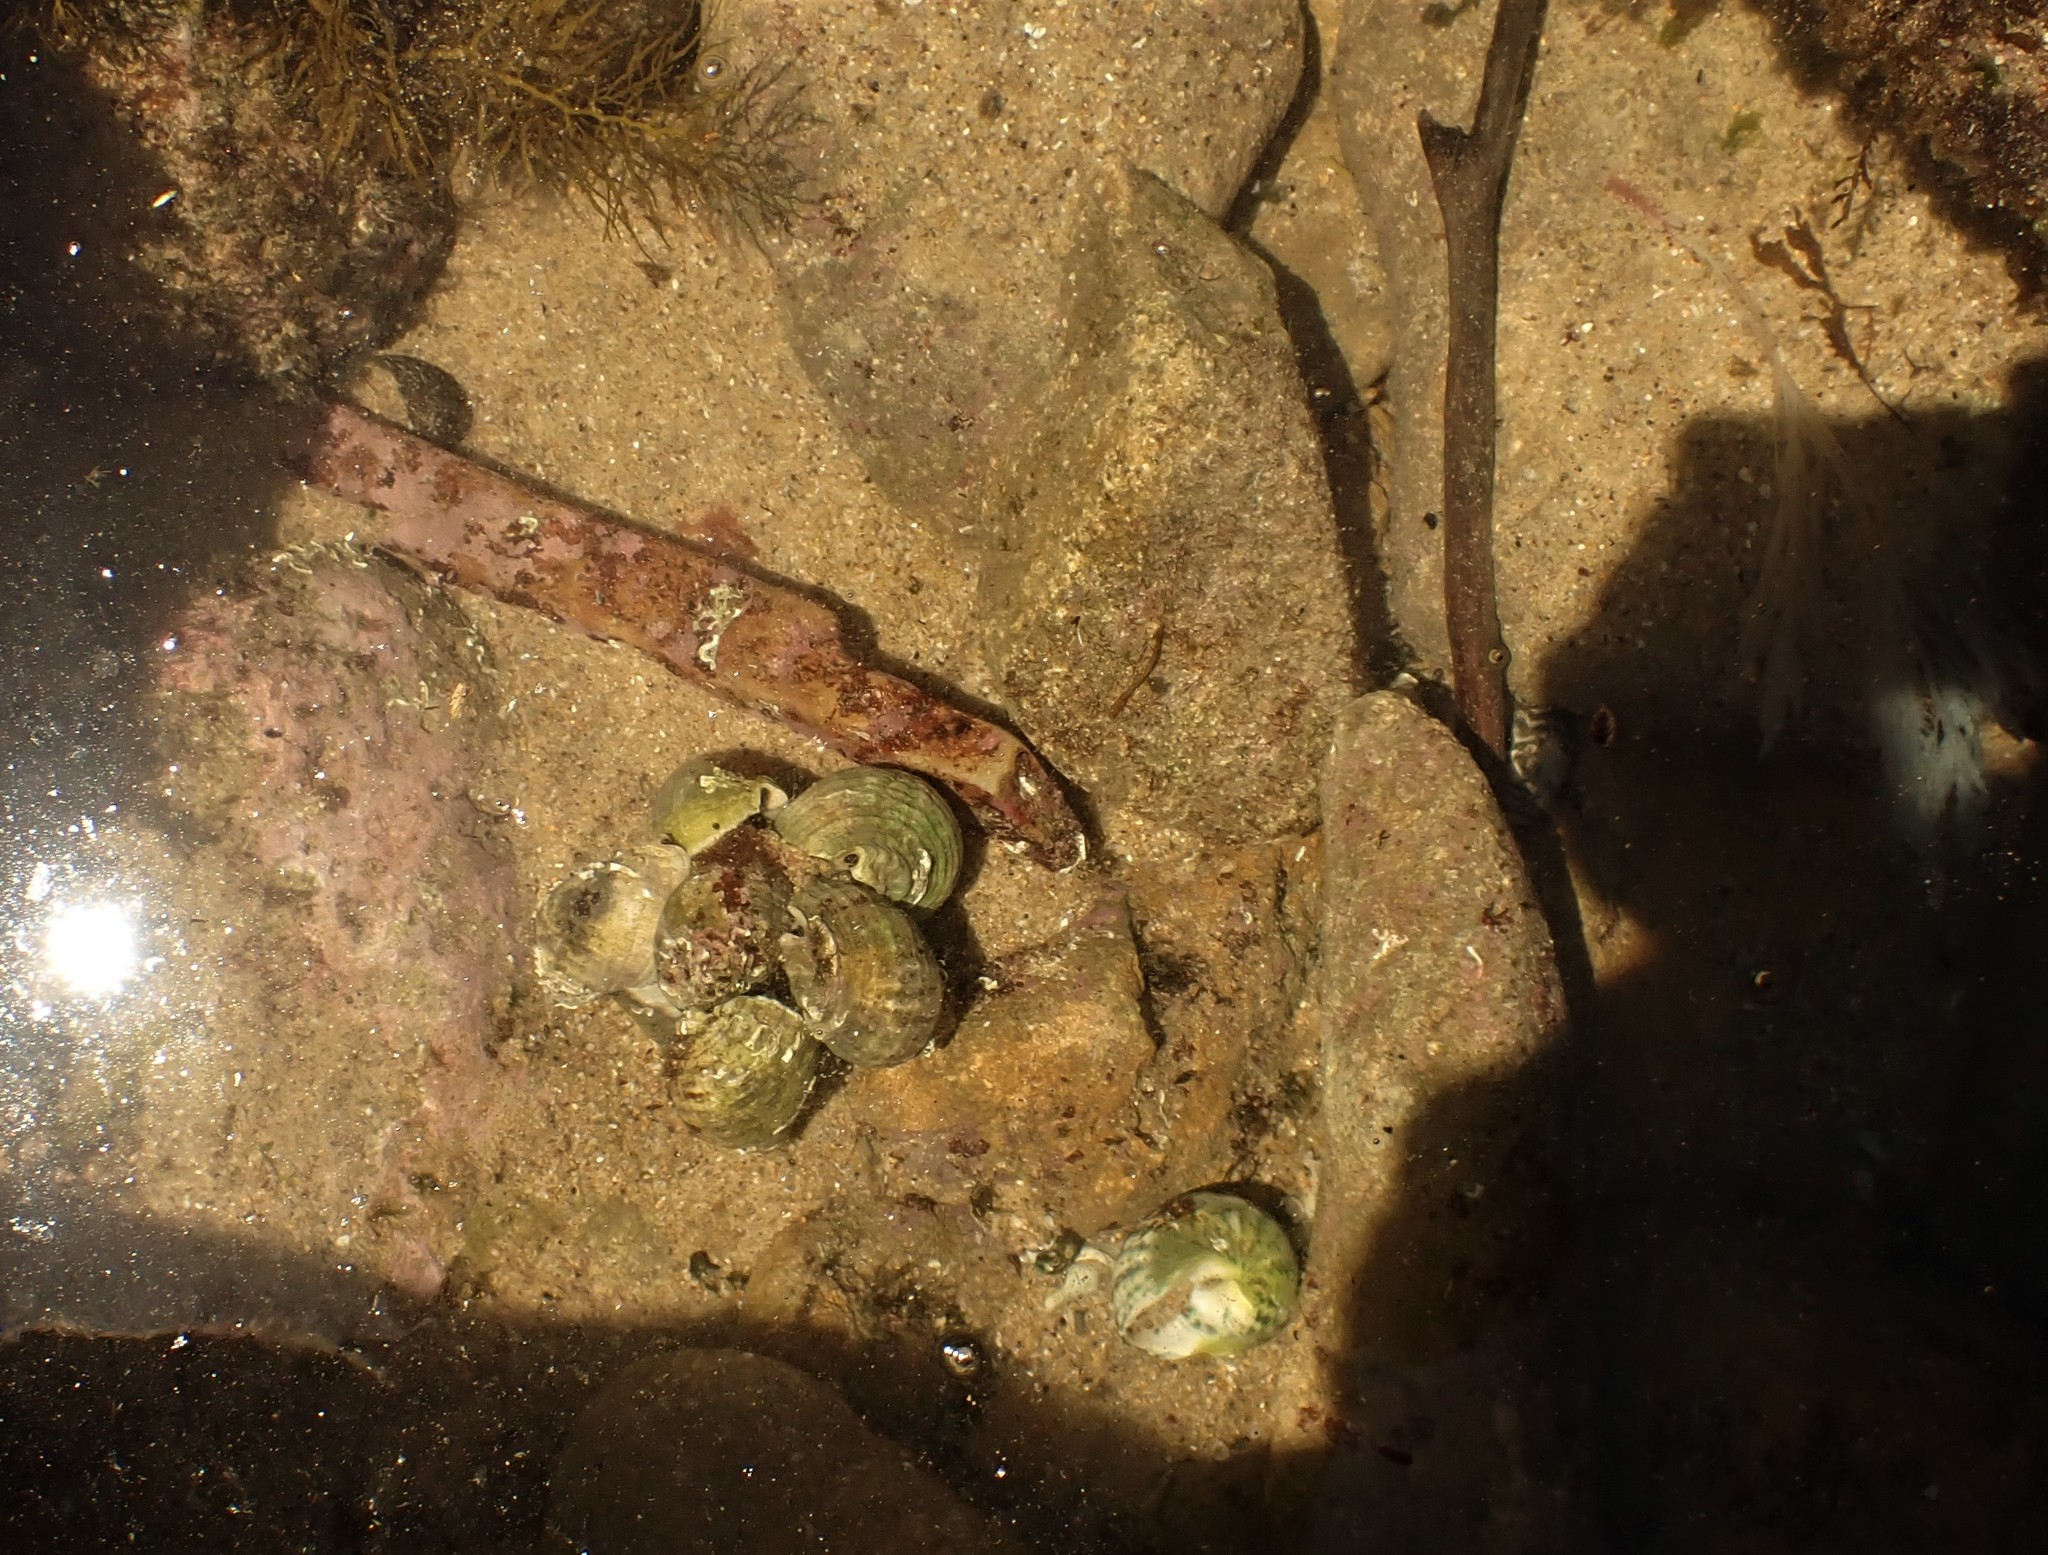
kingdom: Animalia
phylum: Mollusca
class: Gastropoda
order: Neogastropoda
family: Muricidae
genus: Dicathais
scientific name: Dicathais orbita
